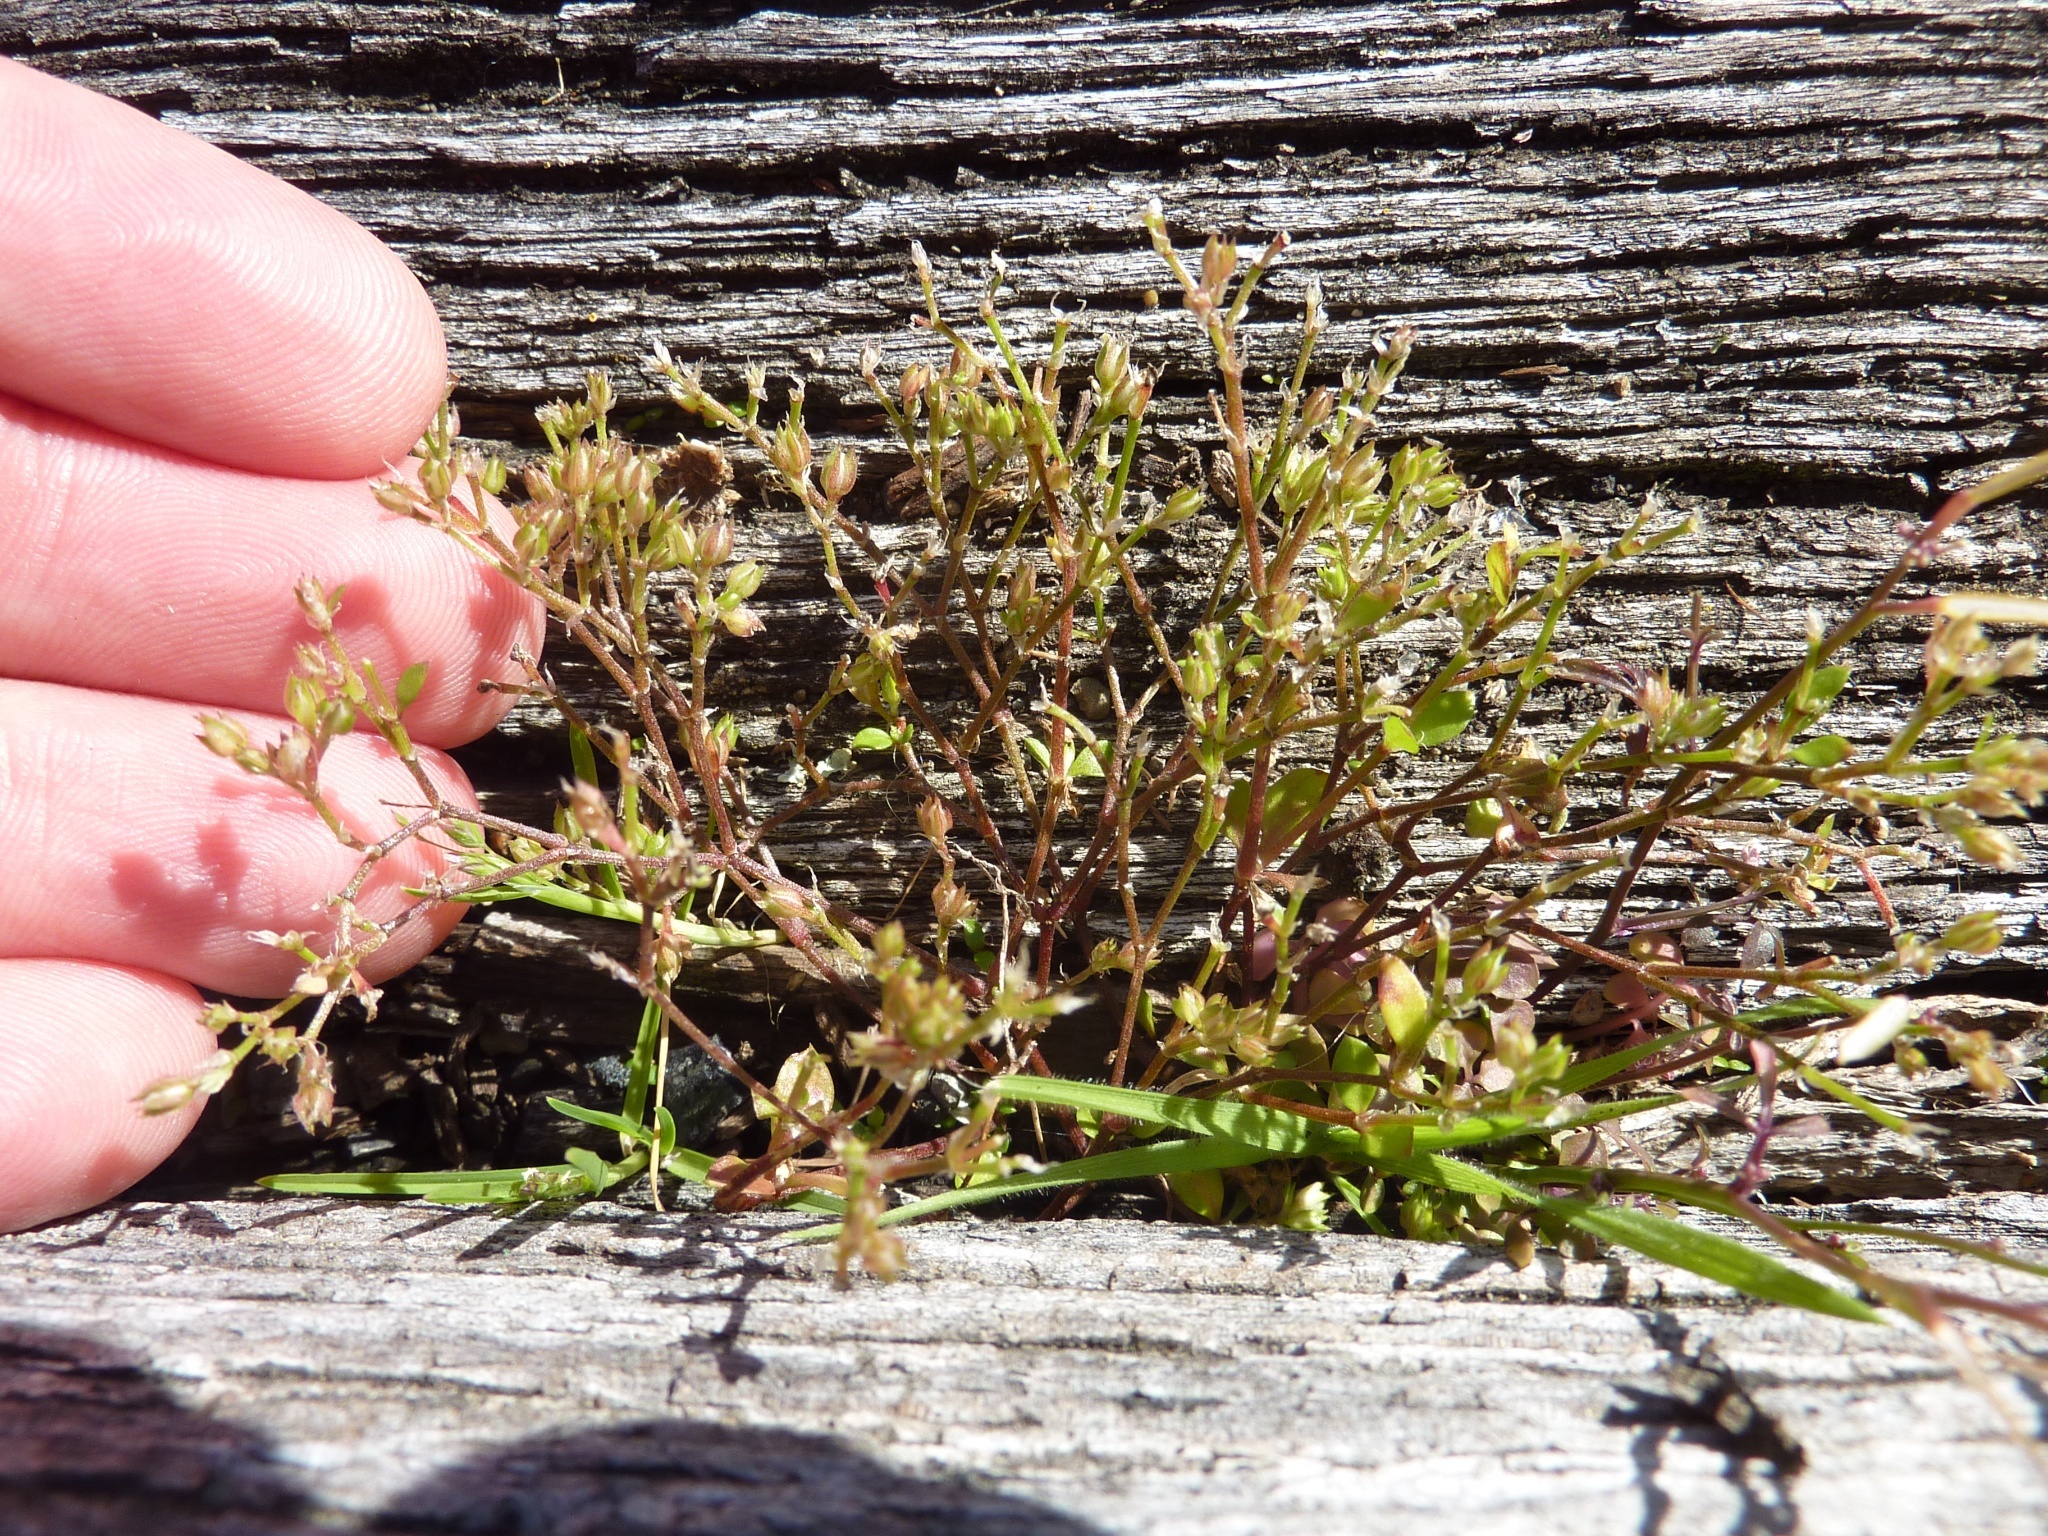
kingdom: Plantae
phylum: Tracheophyta
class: Magnoliopsida
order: Caryophyllales
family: Caryophyllaceae
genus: Polycarpon
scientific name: Polycarpon tetraphyllum
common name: Four-leaved all-seed
